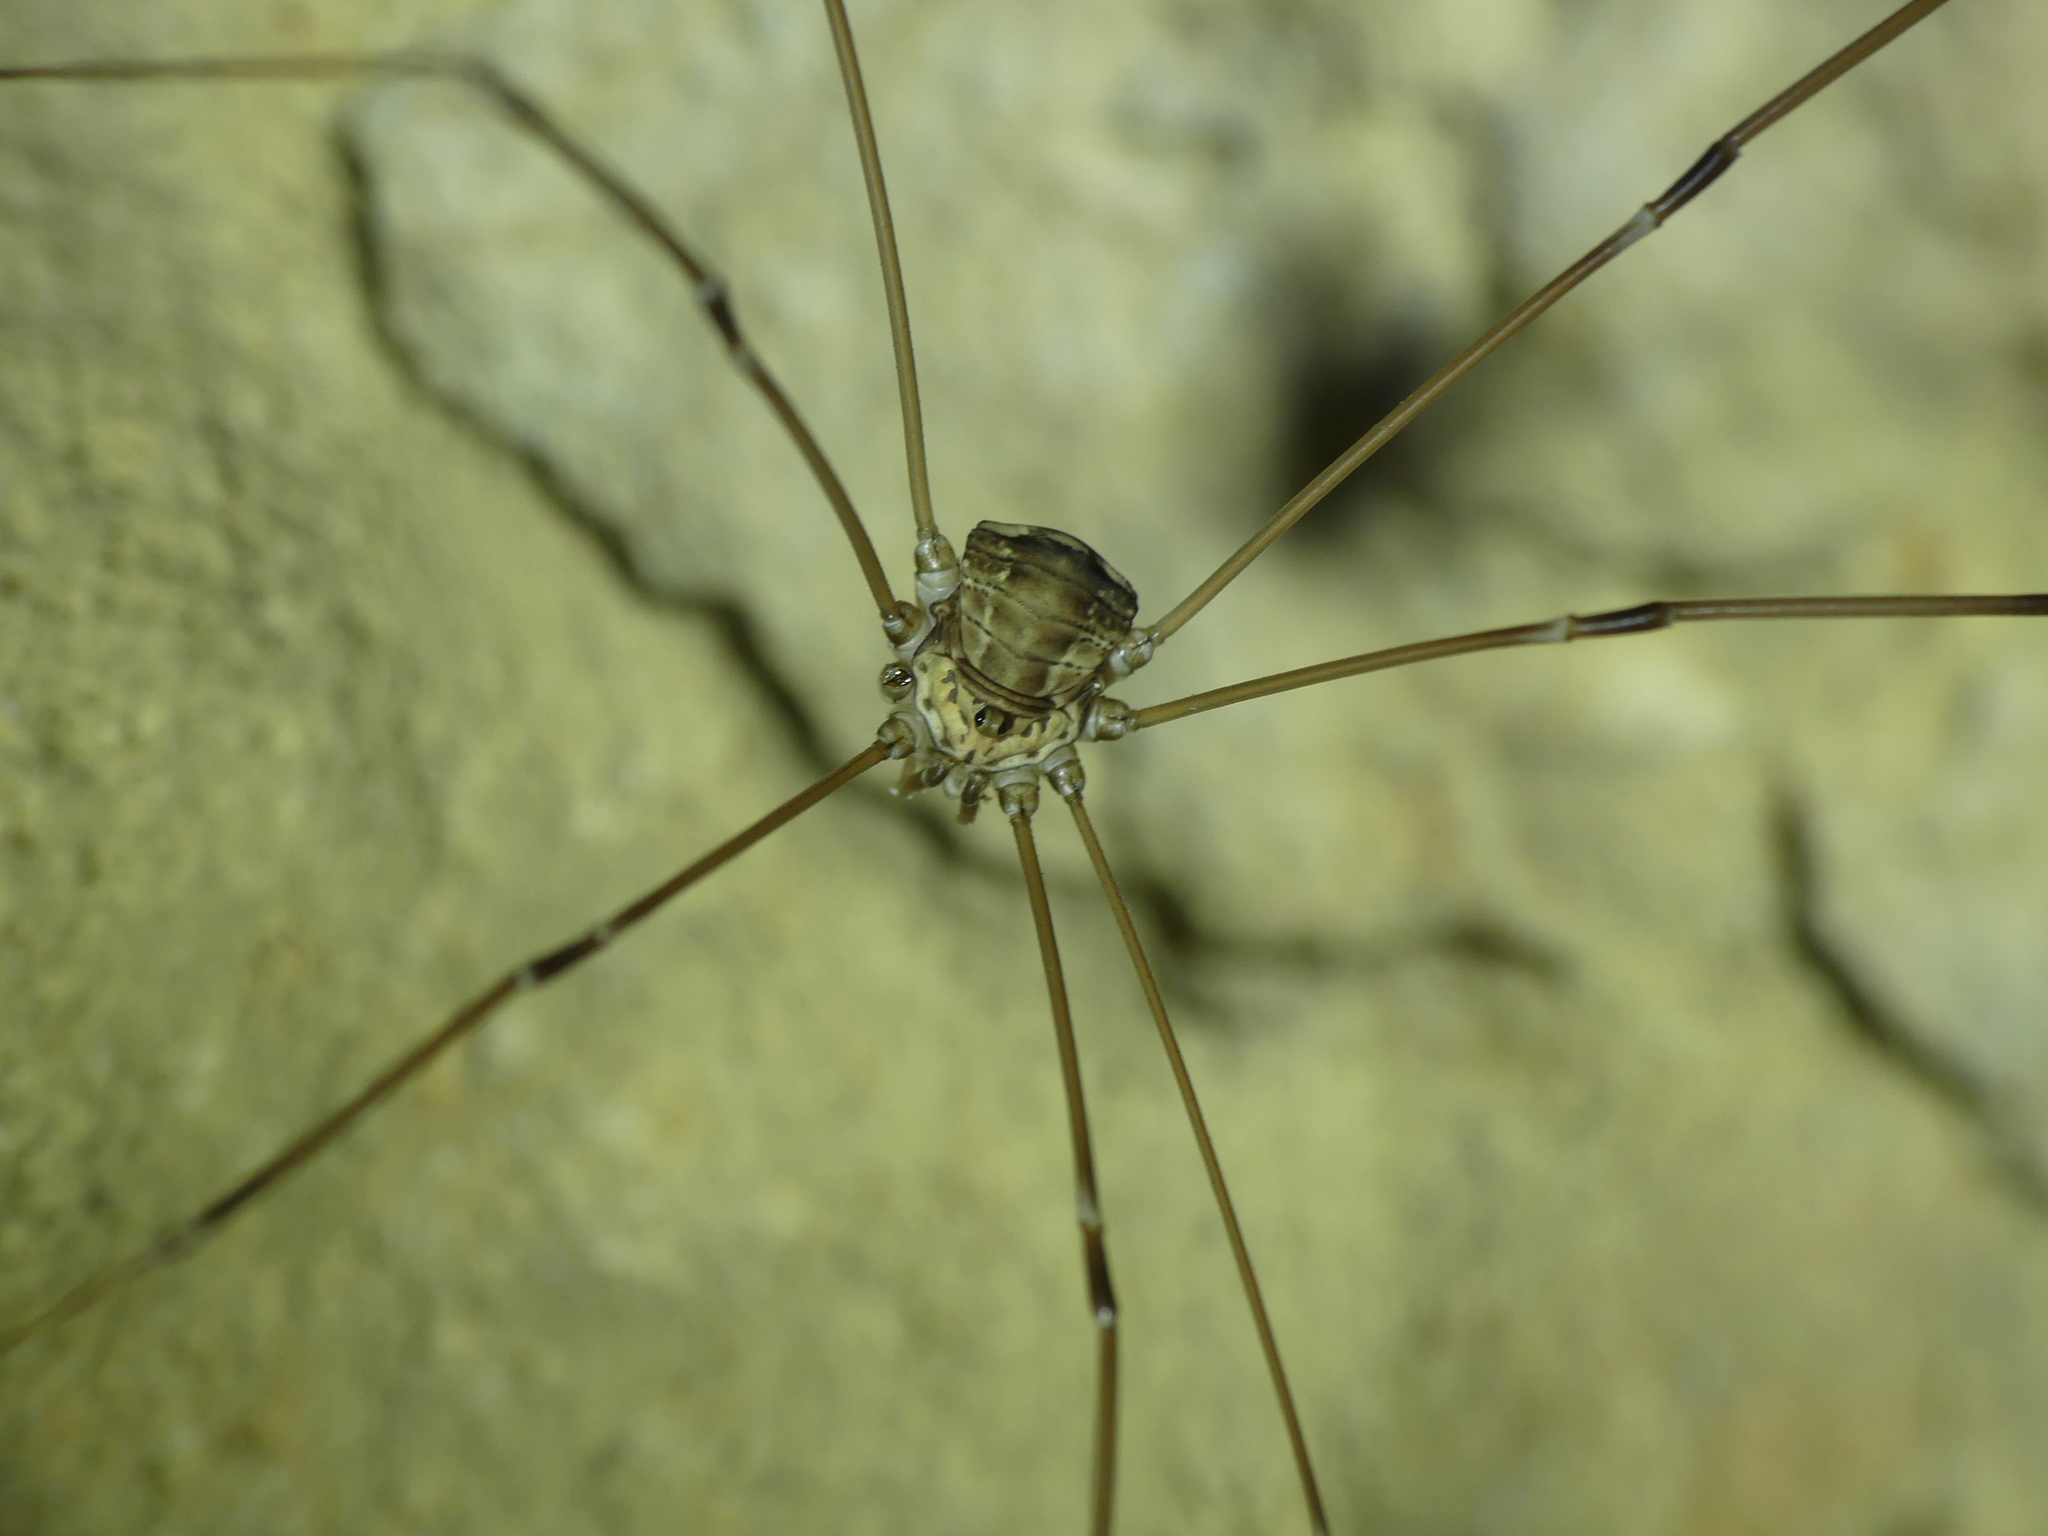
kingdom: Animalia
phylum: Arthropoda
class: Arachnida
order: Opiliones
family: Sclerosomatidae
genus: Leiobunum
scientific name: Leiobunum limbatum
